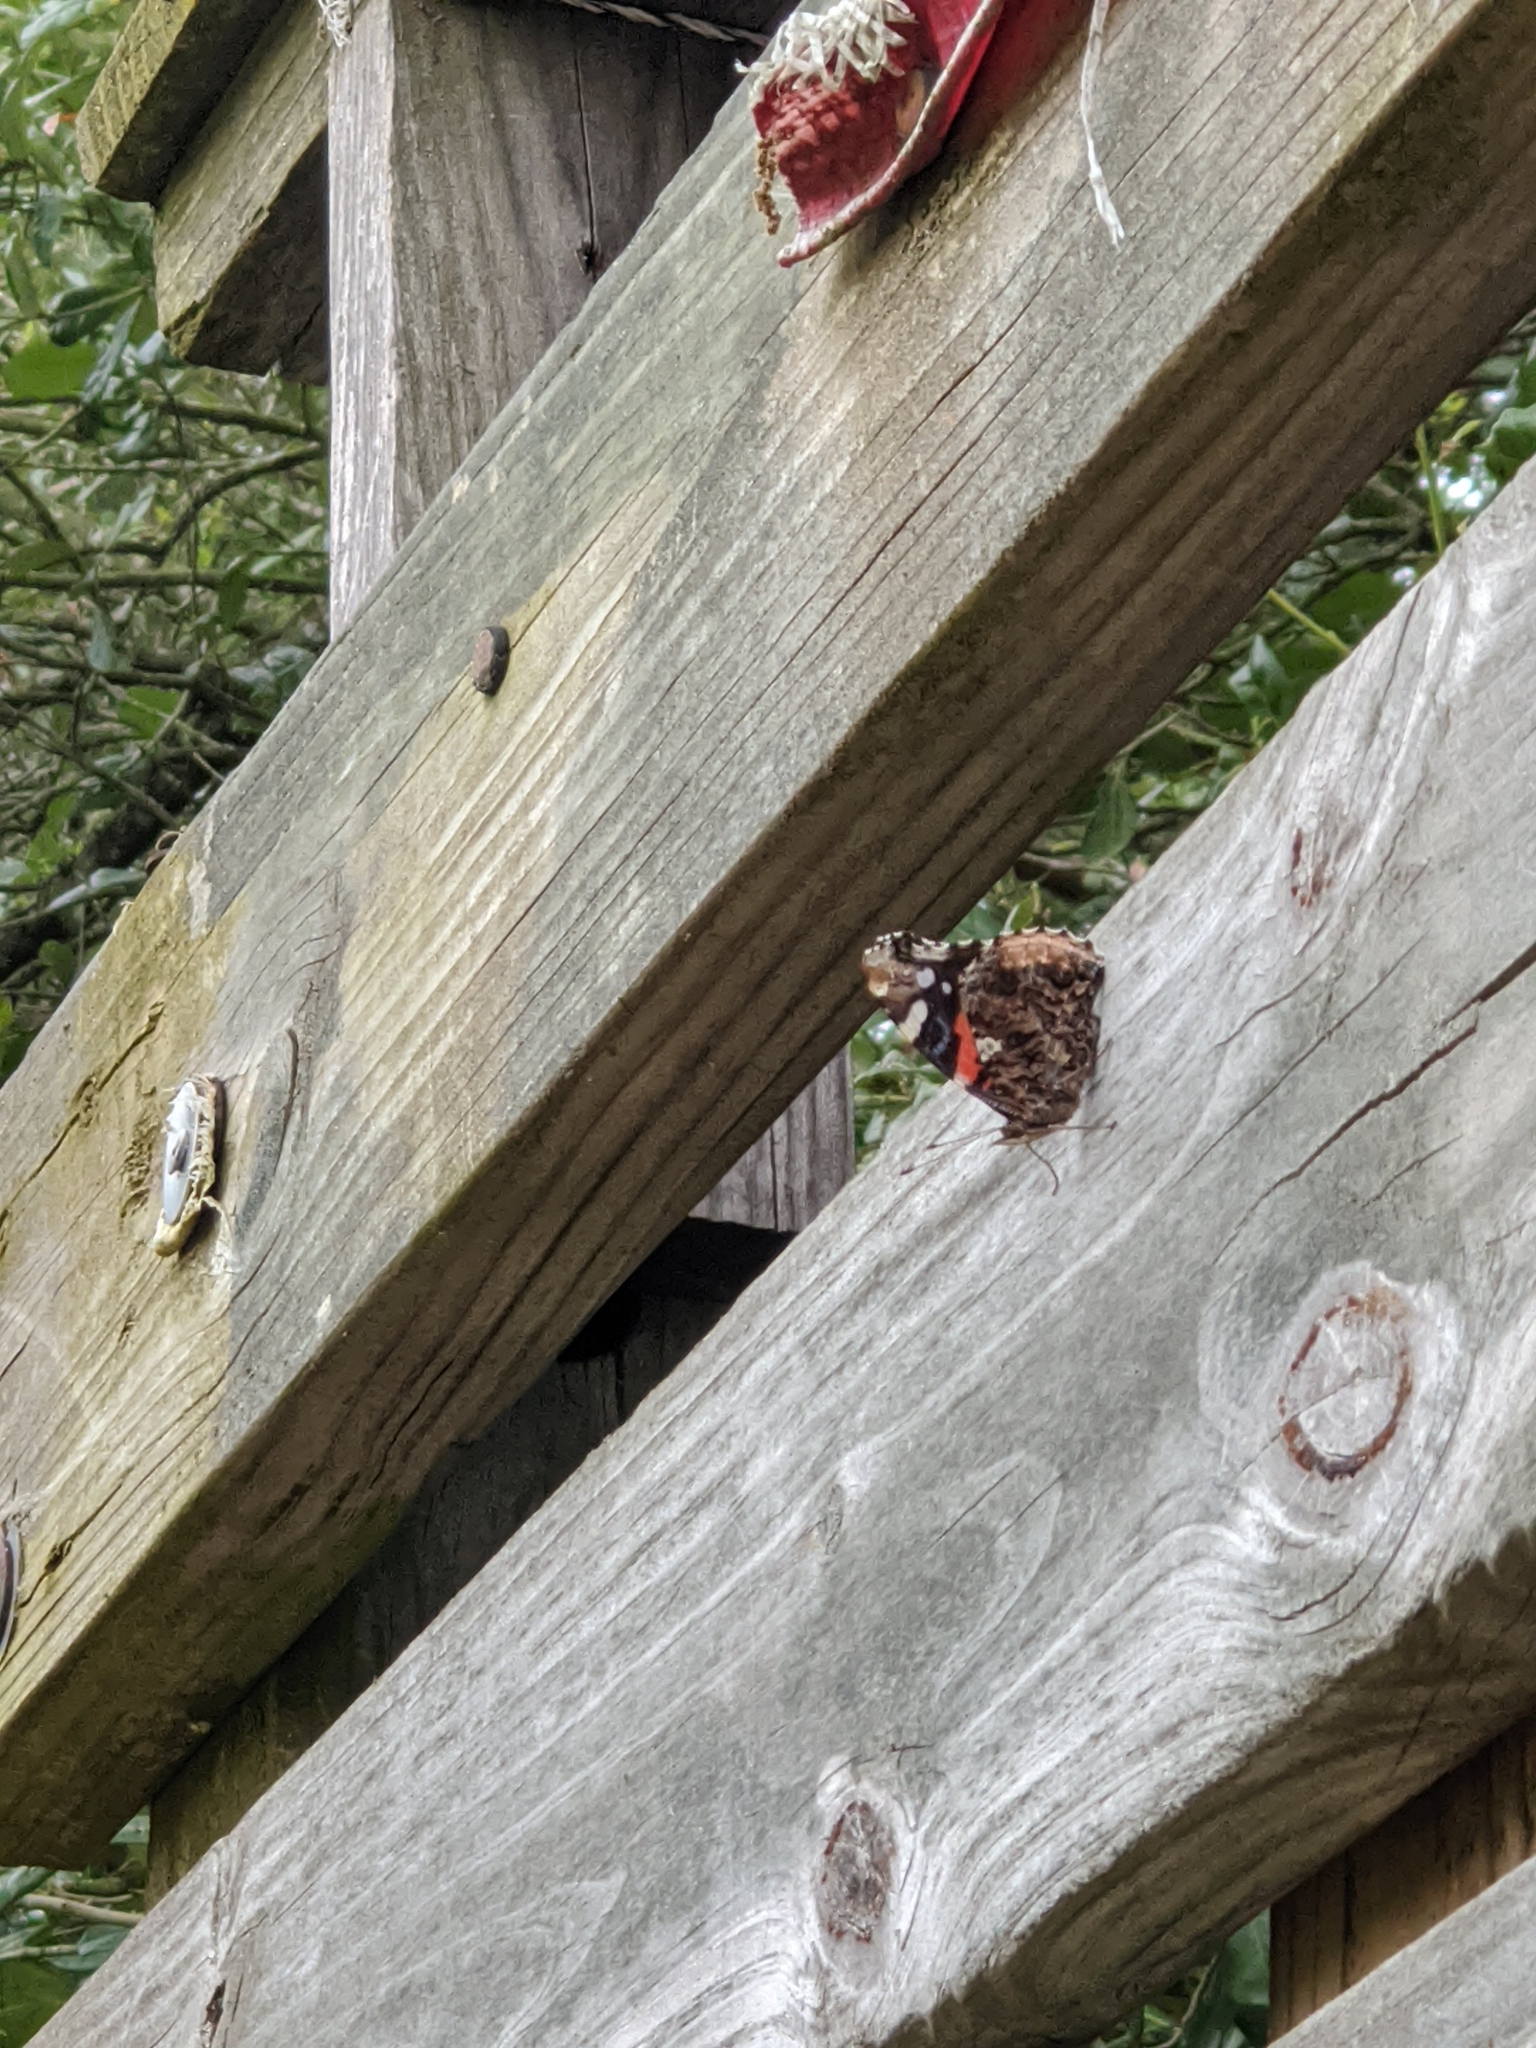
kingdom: Animalia
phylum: Arthropoda
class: Insecta
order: Lepidoptera
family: Nymphalidae
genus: Vanessa
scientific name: Vanessa atalanta
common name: Red admiral
